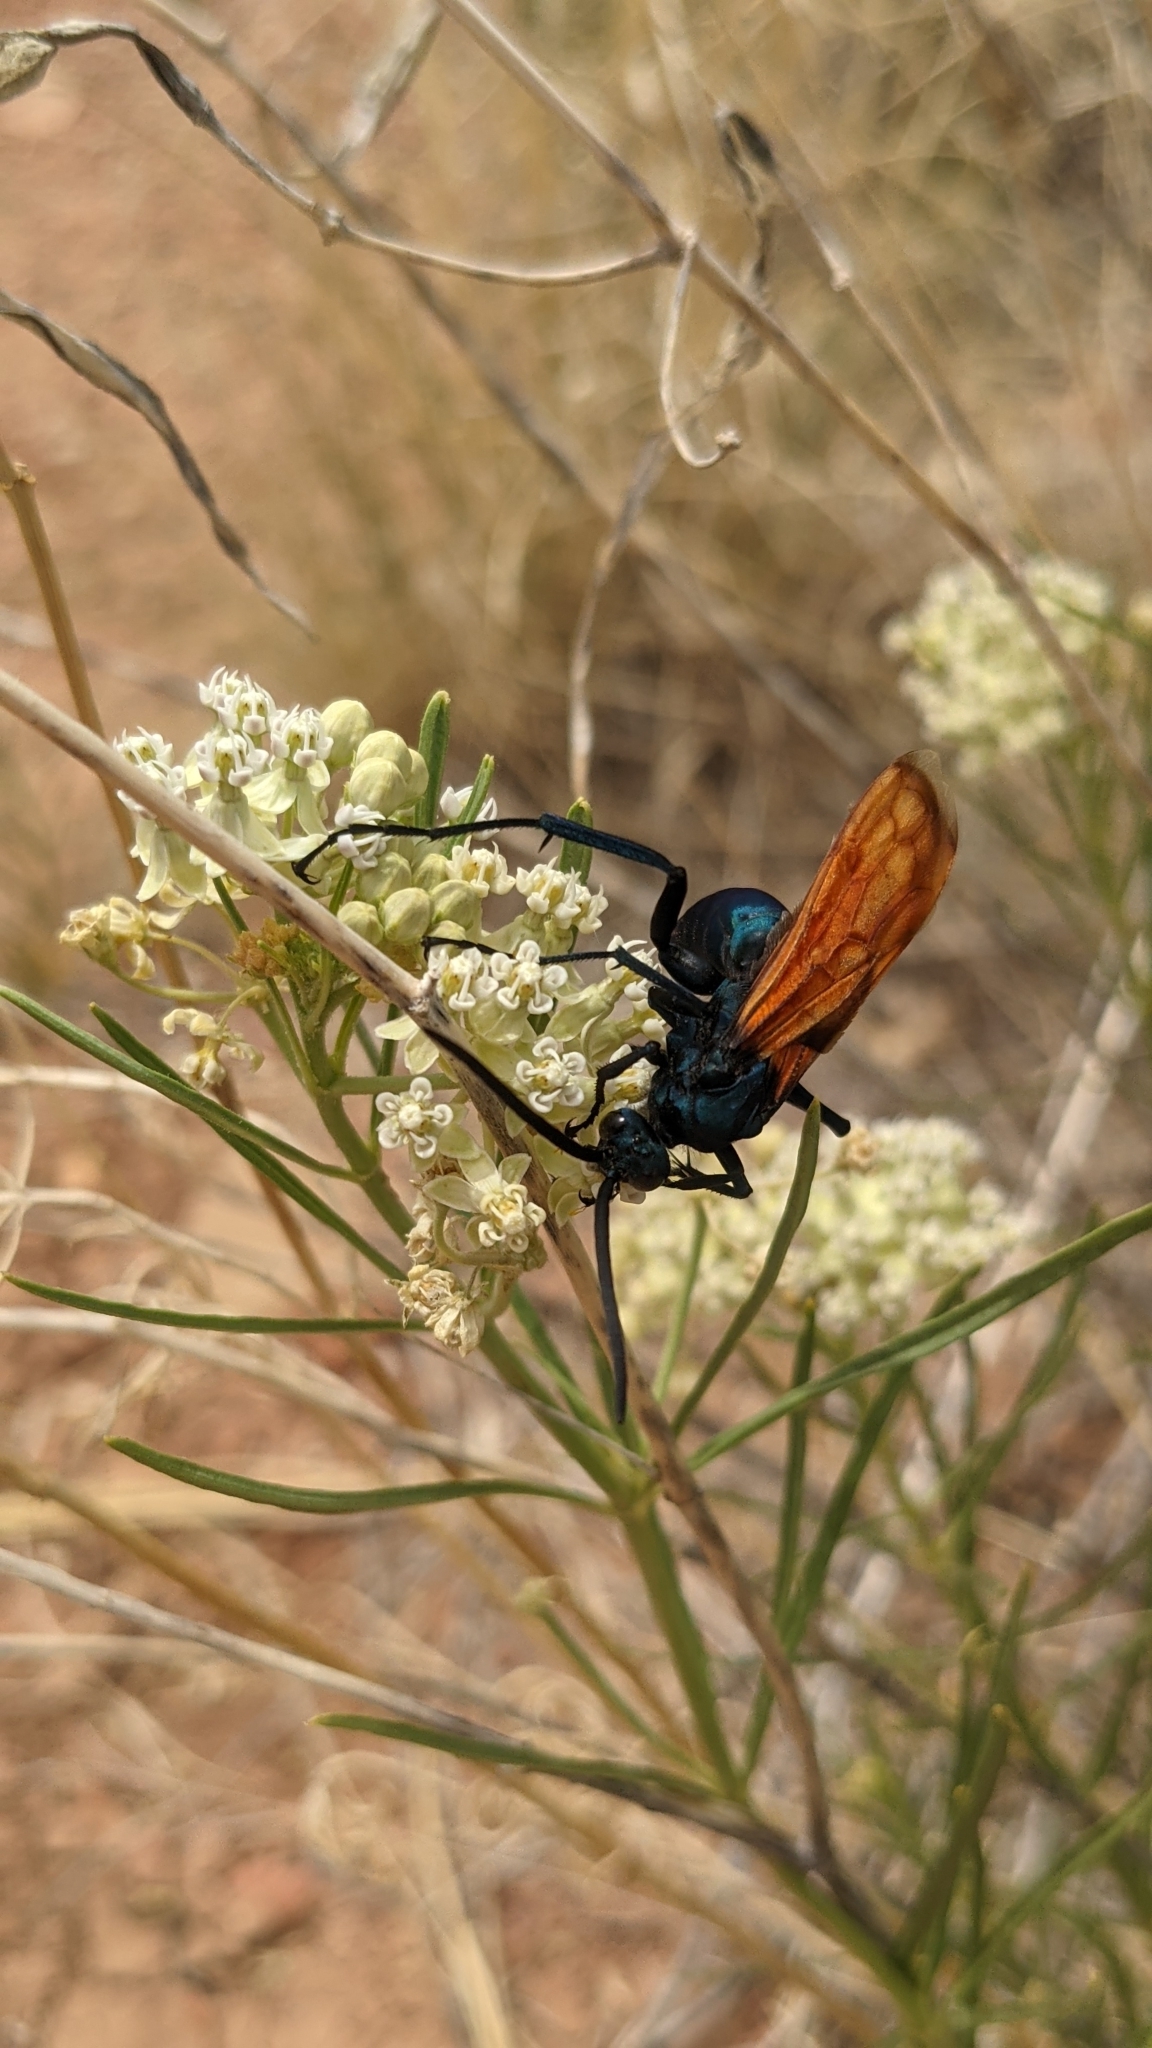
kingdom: Plantae
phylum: Tracheophyta
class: Magnoliopsida
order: Gentianales
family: Apocynaceae
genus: Asclepias
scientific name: Asclepias subverticillata
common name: Horsetail milkweed
